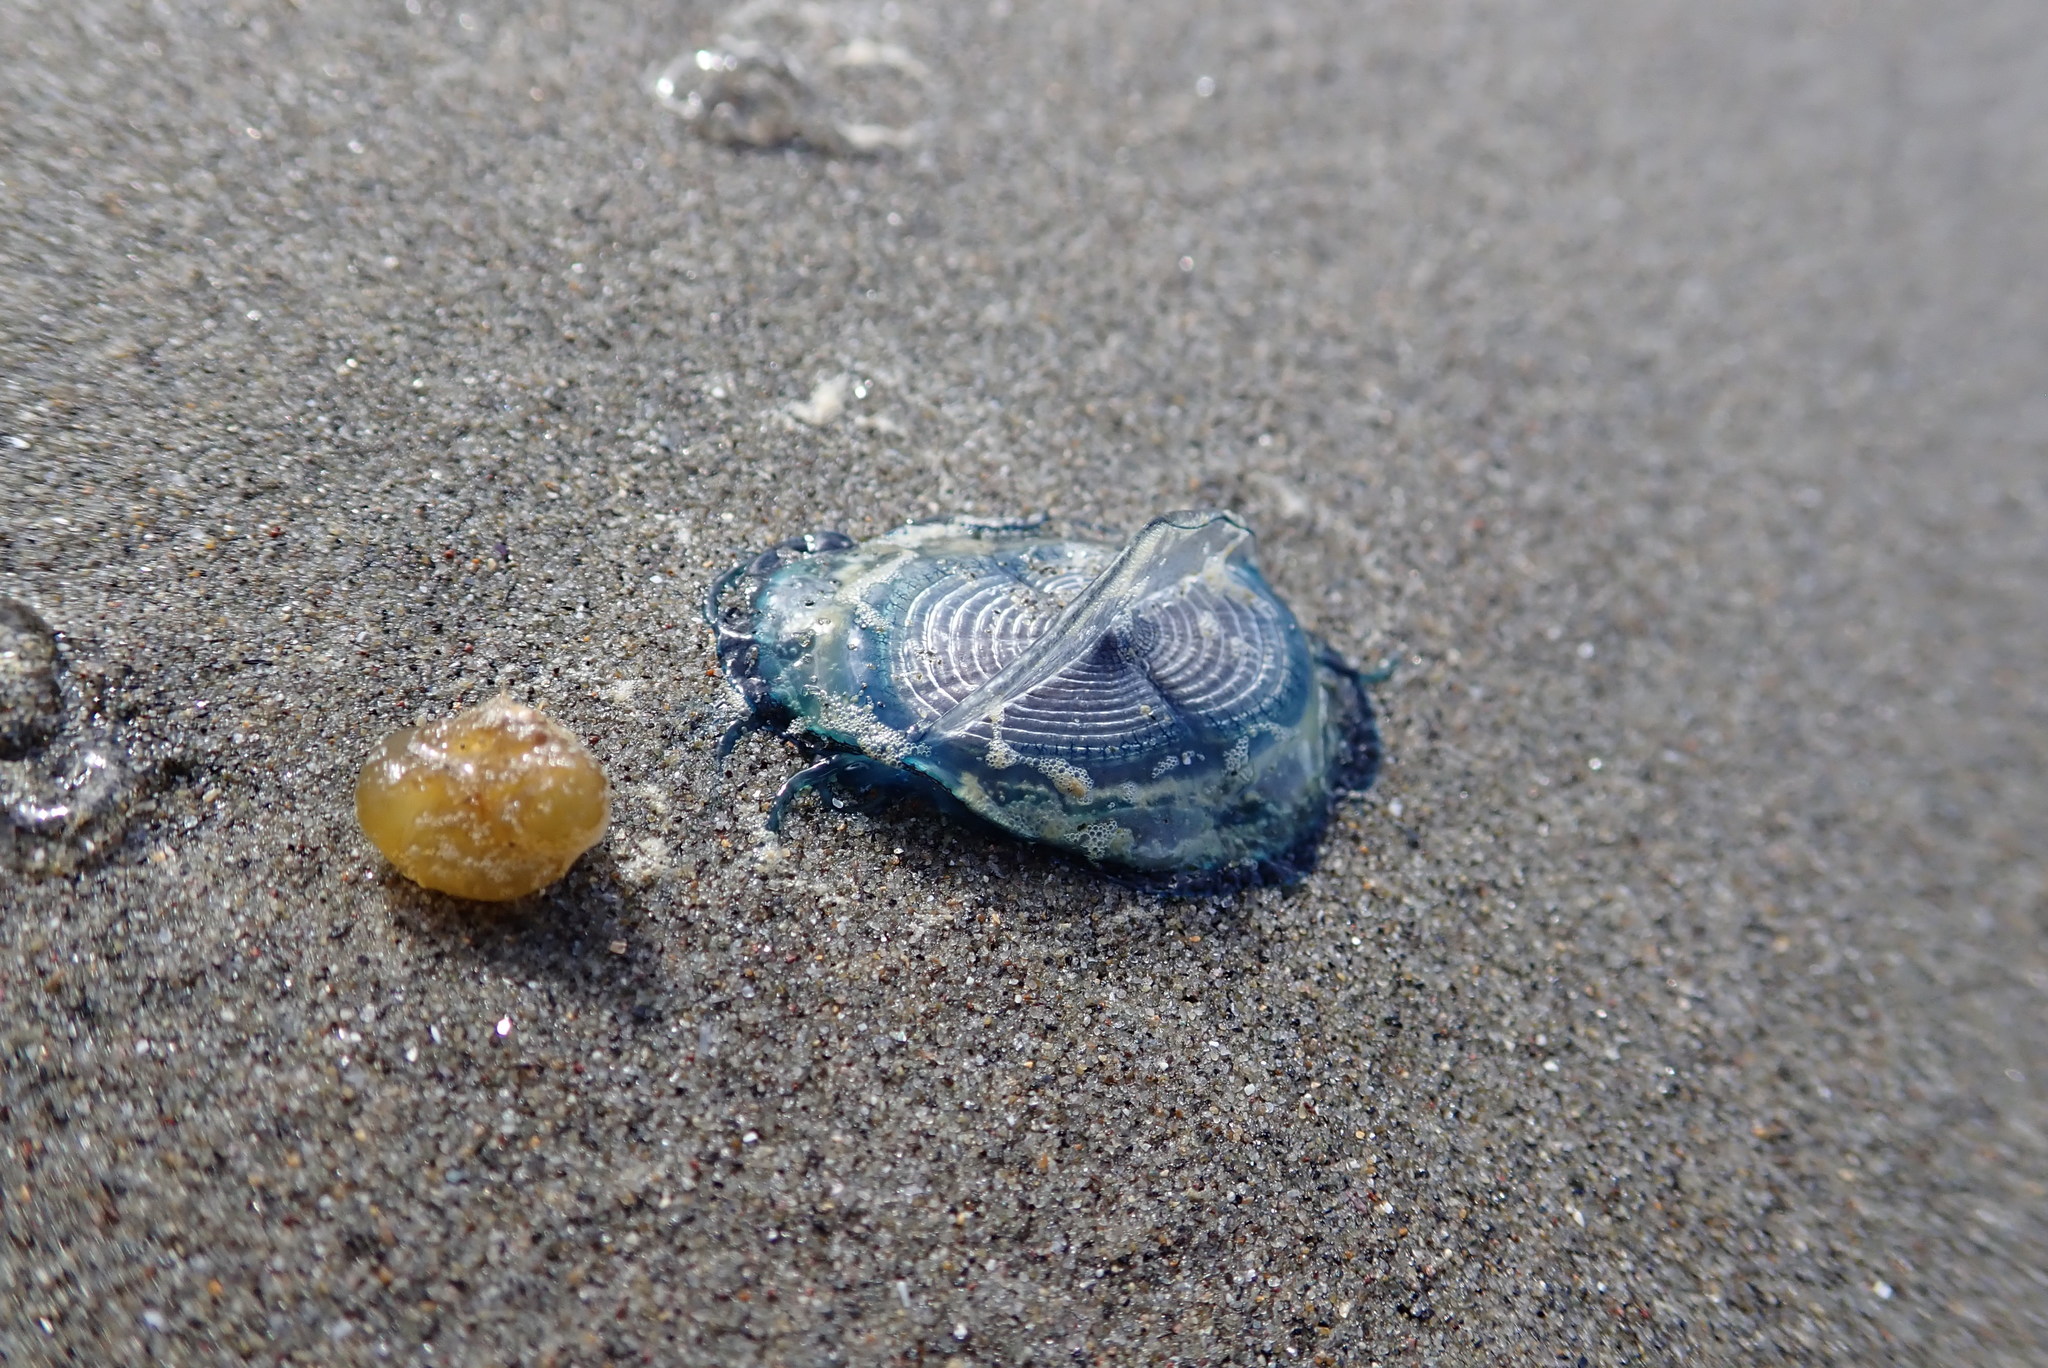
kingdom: Animalia
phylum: Cnidaria
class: Hydrozoa
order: Anthoathecata
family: Porpitidae
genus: Velella
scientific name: Velella velella
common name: By-the-wind-sailor
